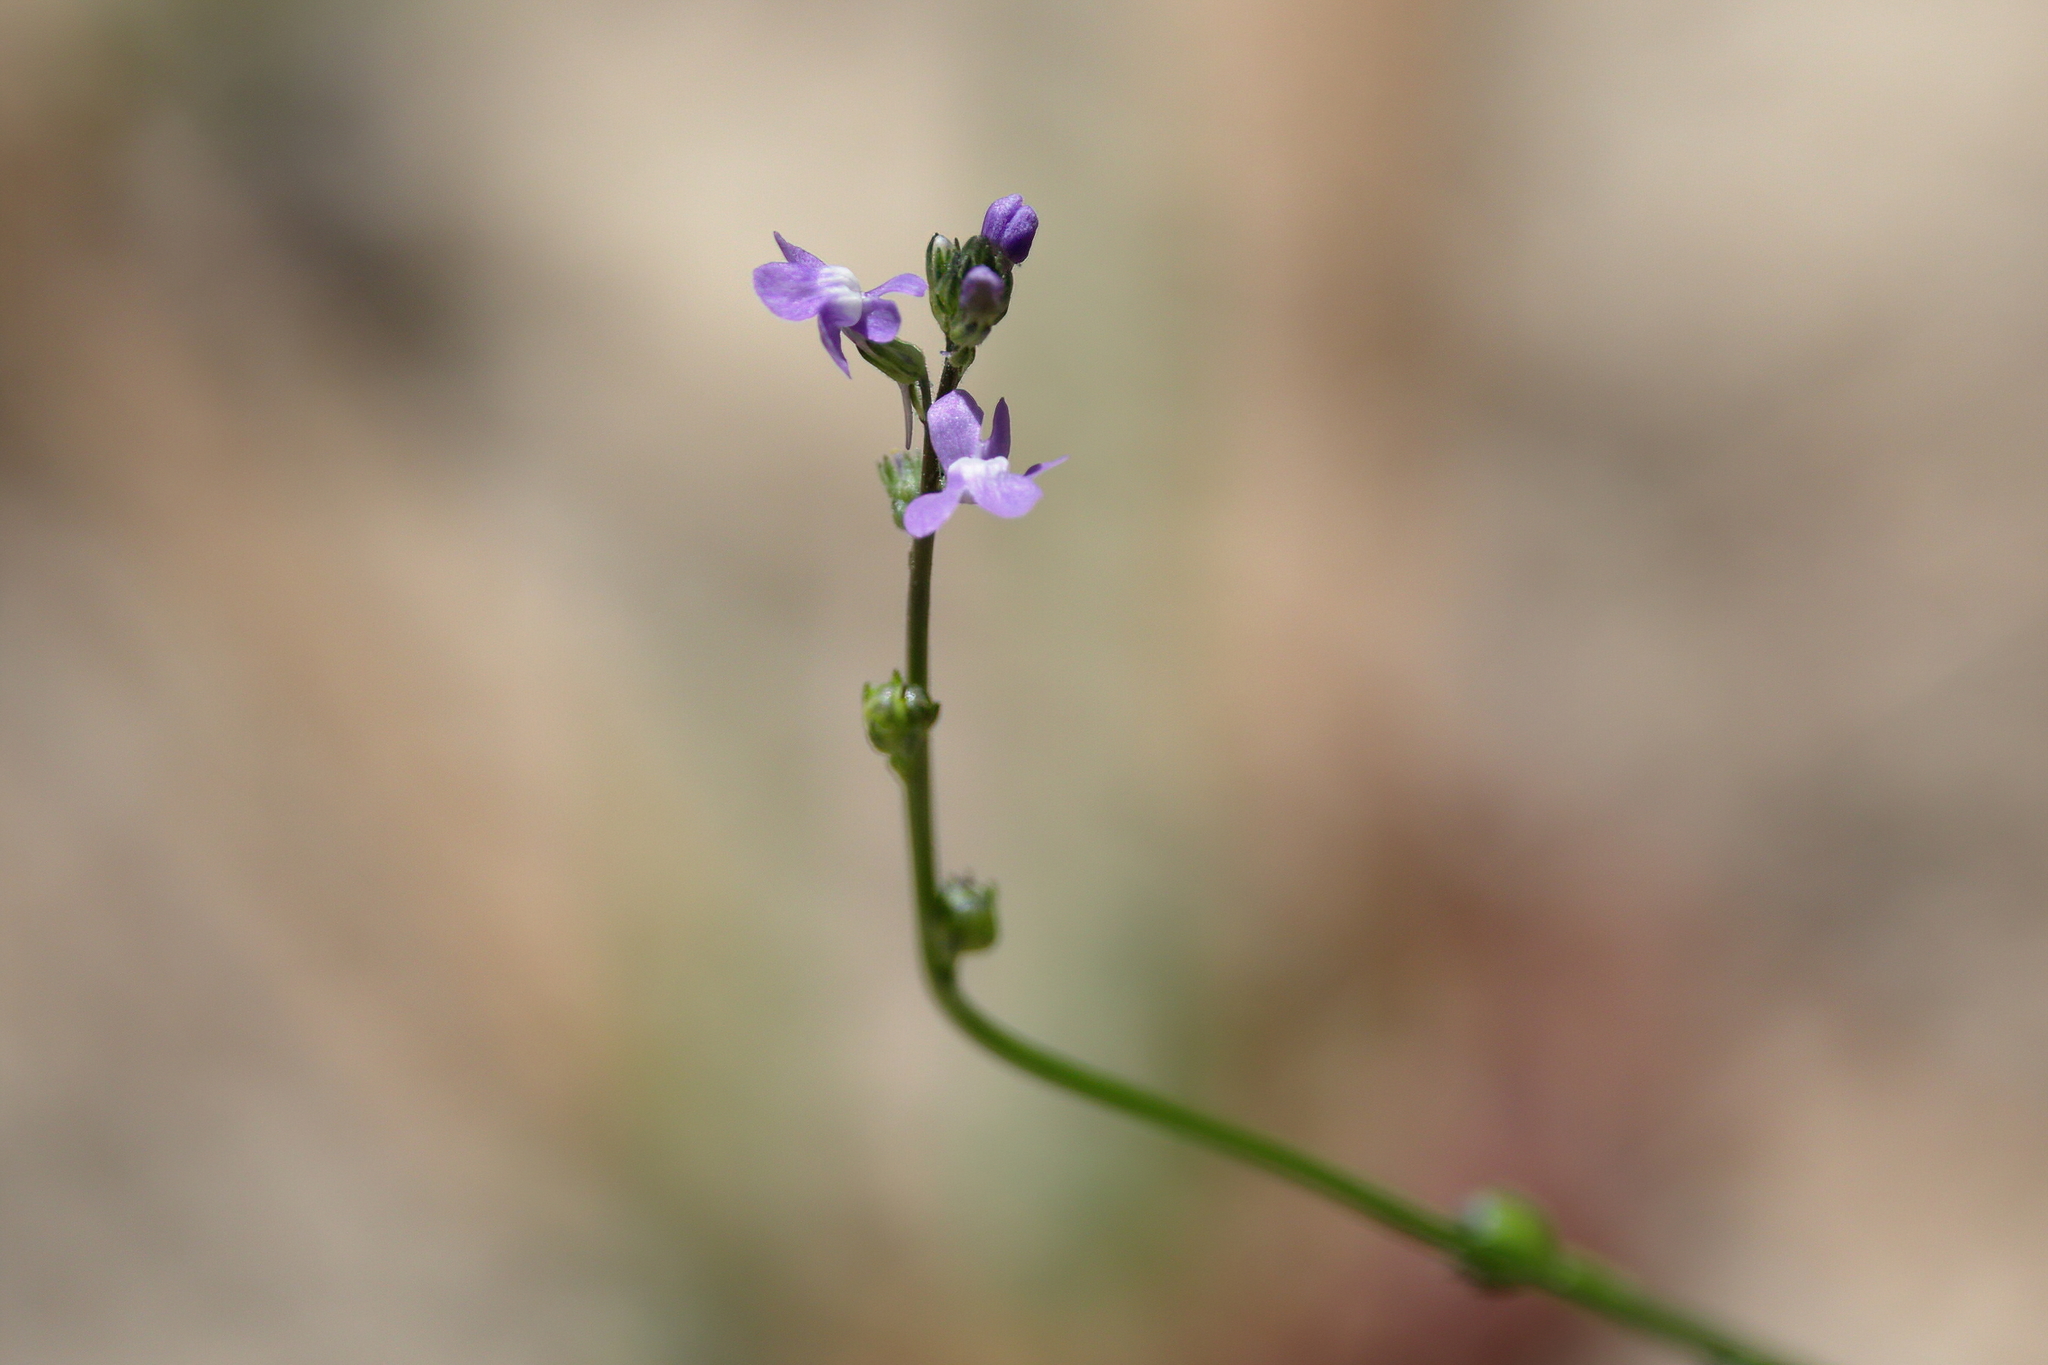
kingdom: Plantae
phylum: Tracheophyta
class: Magnoliopsida
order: Lamiales
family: Plantaginaceae
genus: Nuttallanthus
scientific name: Nuttallanthus canadensis
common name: Blue toadflax
